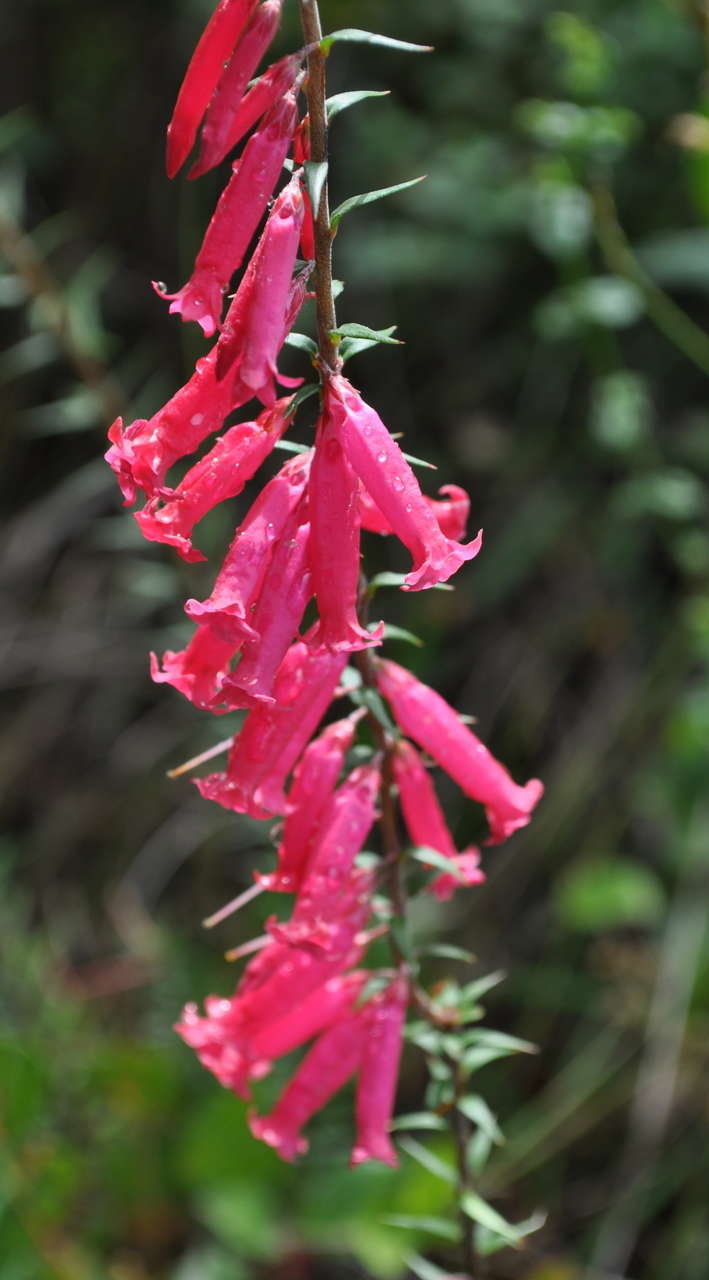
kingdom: Plantae
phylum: Tracheophyta
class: Magnoliopsida
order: Ericales
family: Ericaceae
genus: Epacris
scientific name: Epacris impressa
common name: Common-heath
